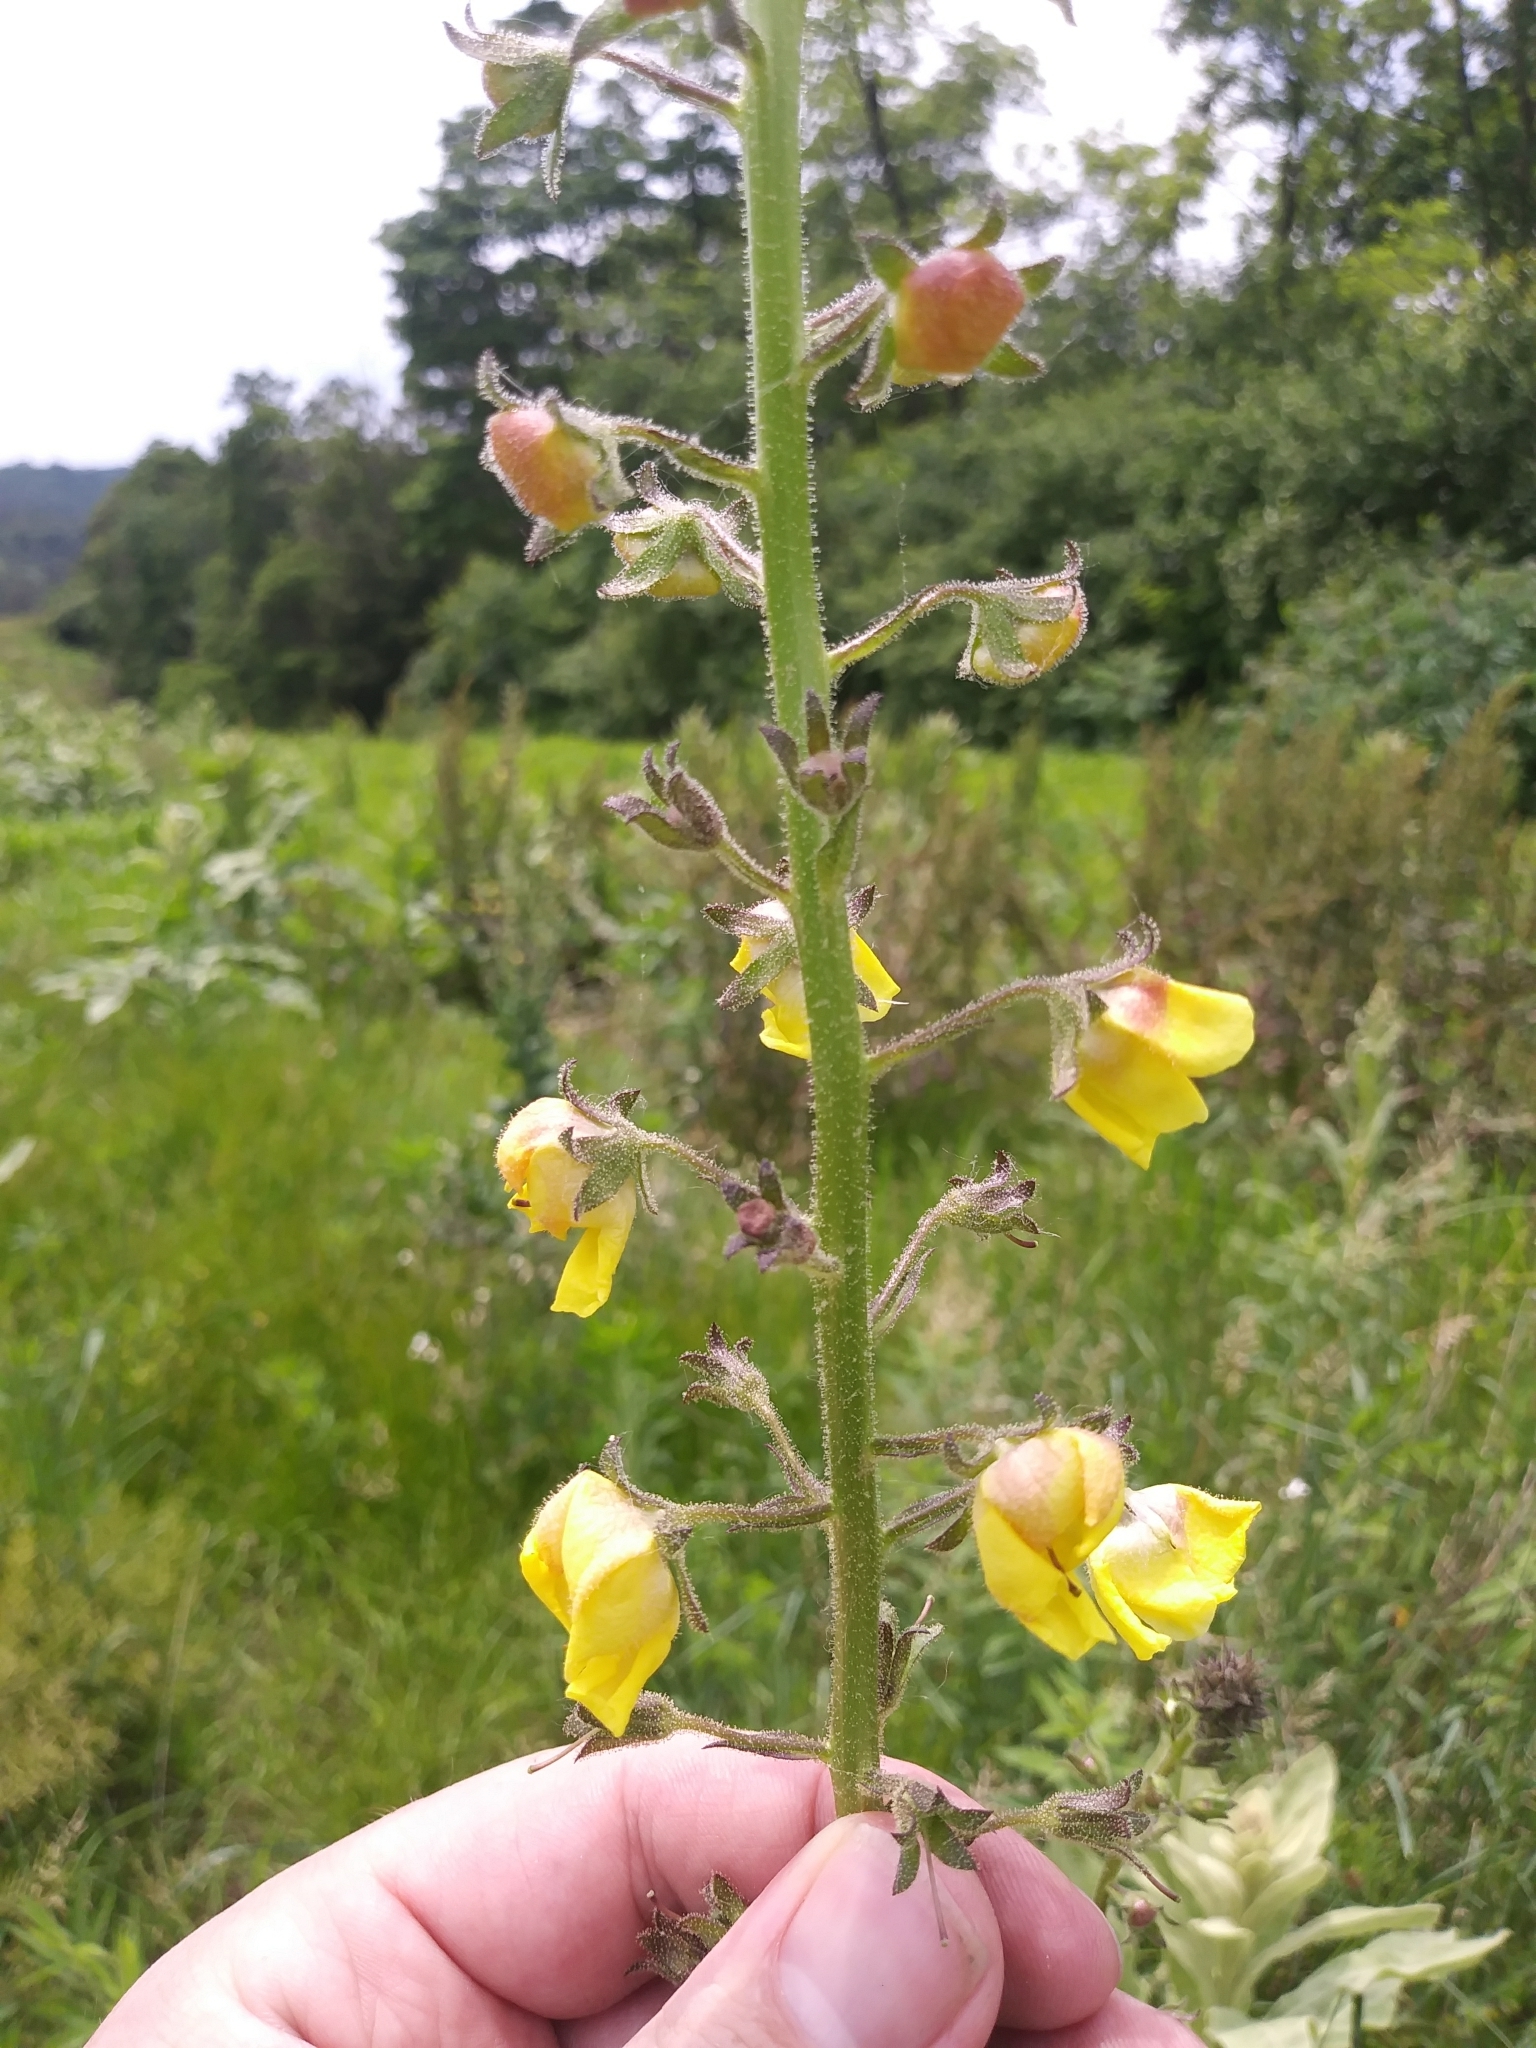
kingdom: Plantae
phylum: Tracheophyta
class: Magnoliopsida
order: Lamiales
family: Scrophulariaceae
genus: Verbascum
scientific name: Verbascum blattaria
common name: Moth mullein
